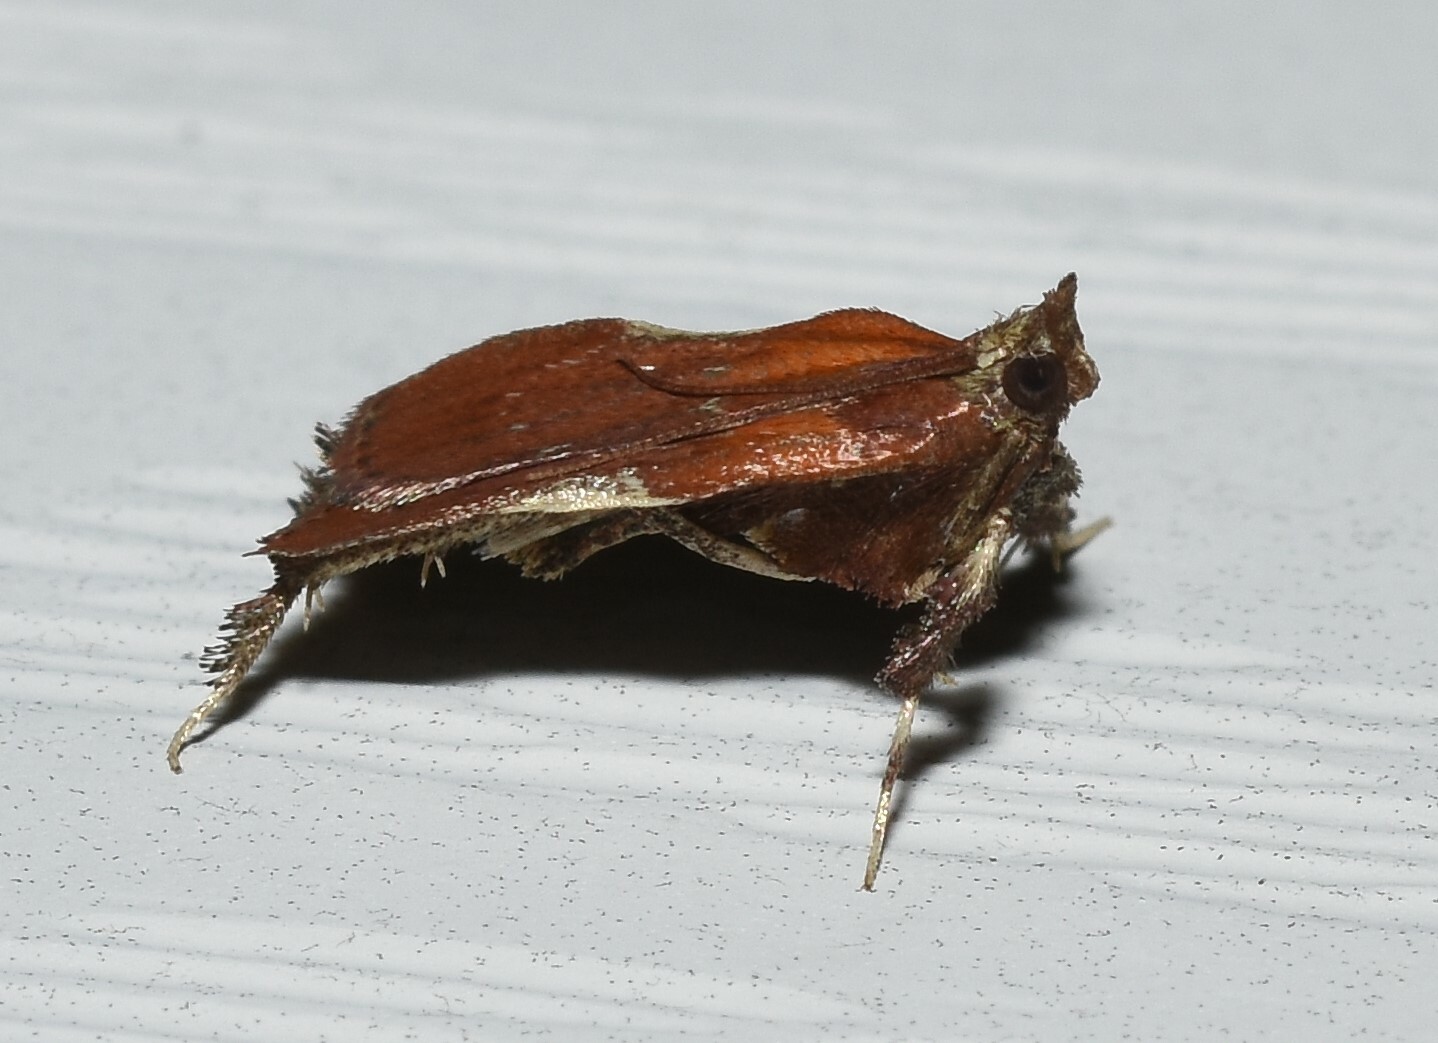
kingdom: Animalia
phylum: Arthropoda
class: Insecta
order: Lepidoptera
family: Pyralidae
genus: Galasa
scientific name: Galasa nigrinodis
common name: Boxwood leaftier moth
